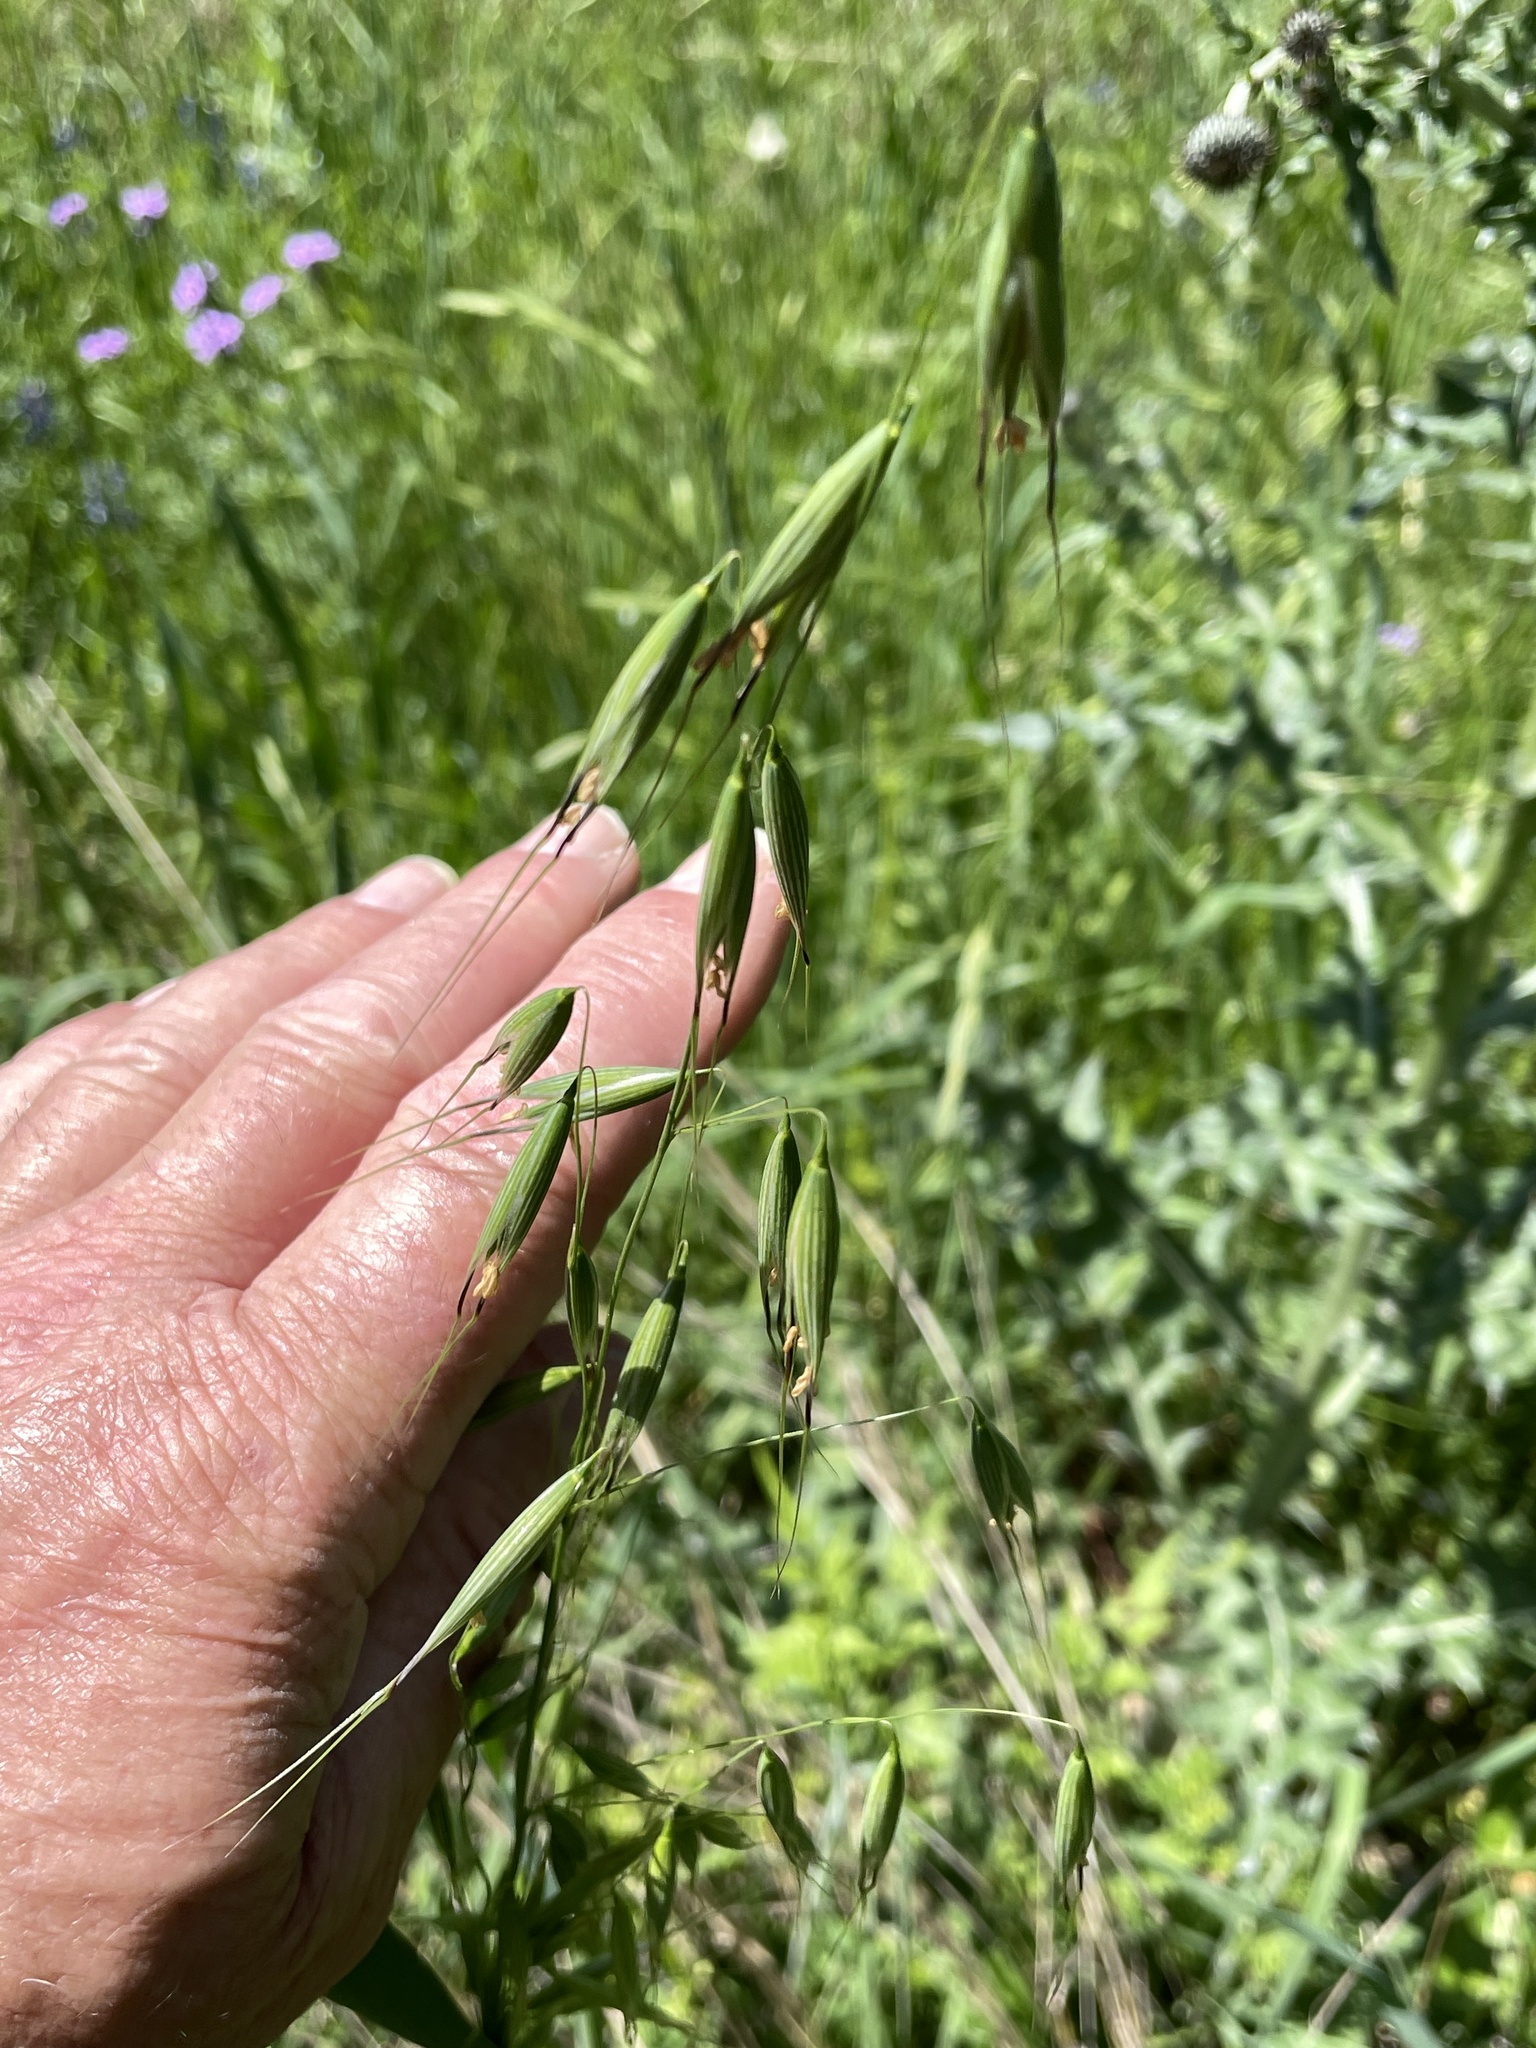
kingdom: Plantae
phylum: Tracheophyta
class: Liliopsida
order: Poales
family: Poaceae
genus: Avena
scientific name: Avena fatua
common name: Wild oat
